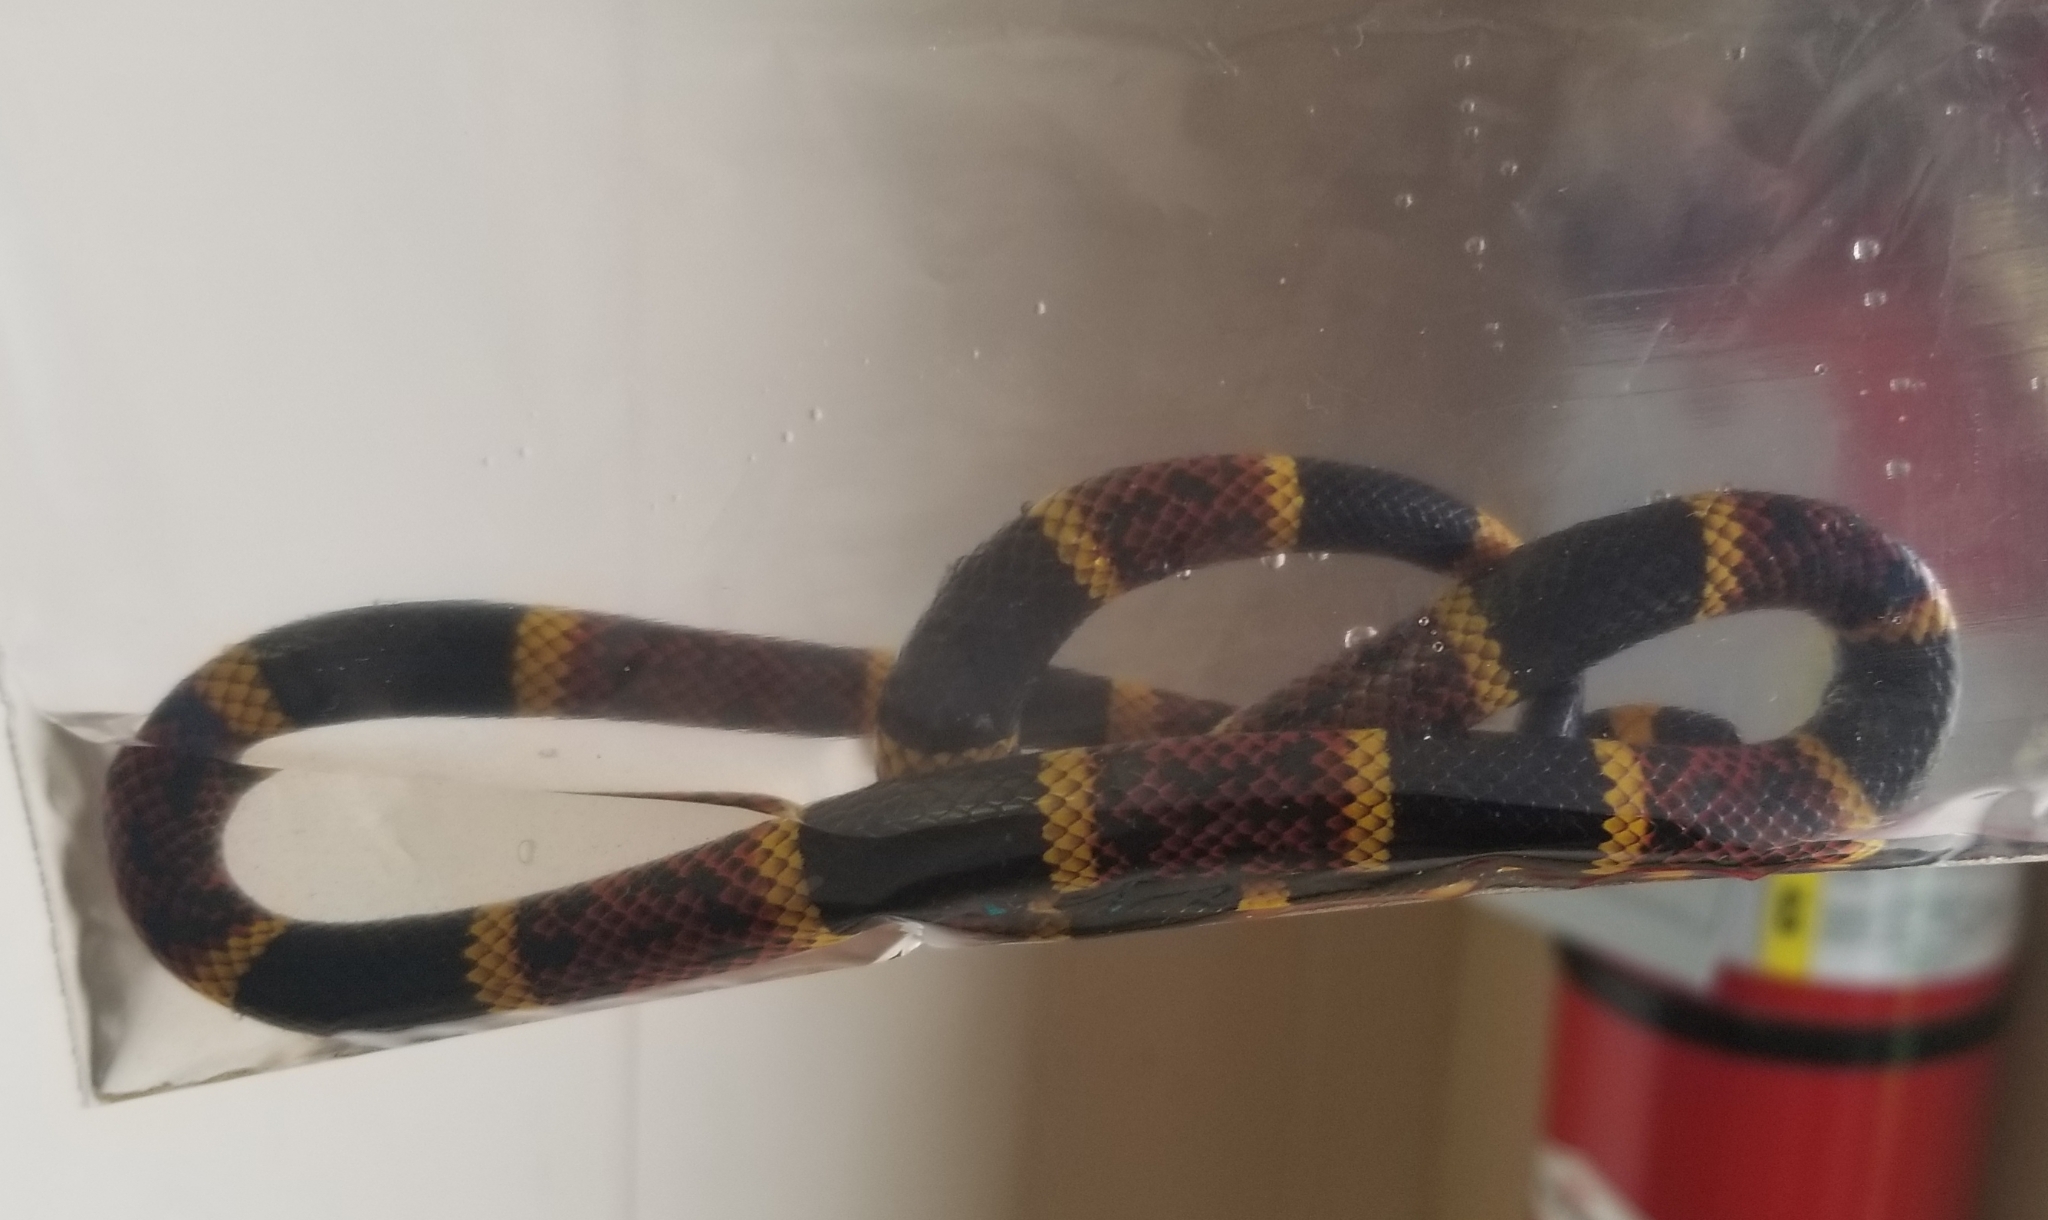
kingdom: Animalia
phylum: Chordata
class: Squamata
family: Elapidae
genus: Micrurus
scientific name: Micrurus tener
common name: Texas coral snake
